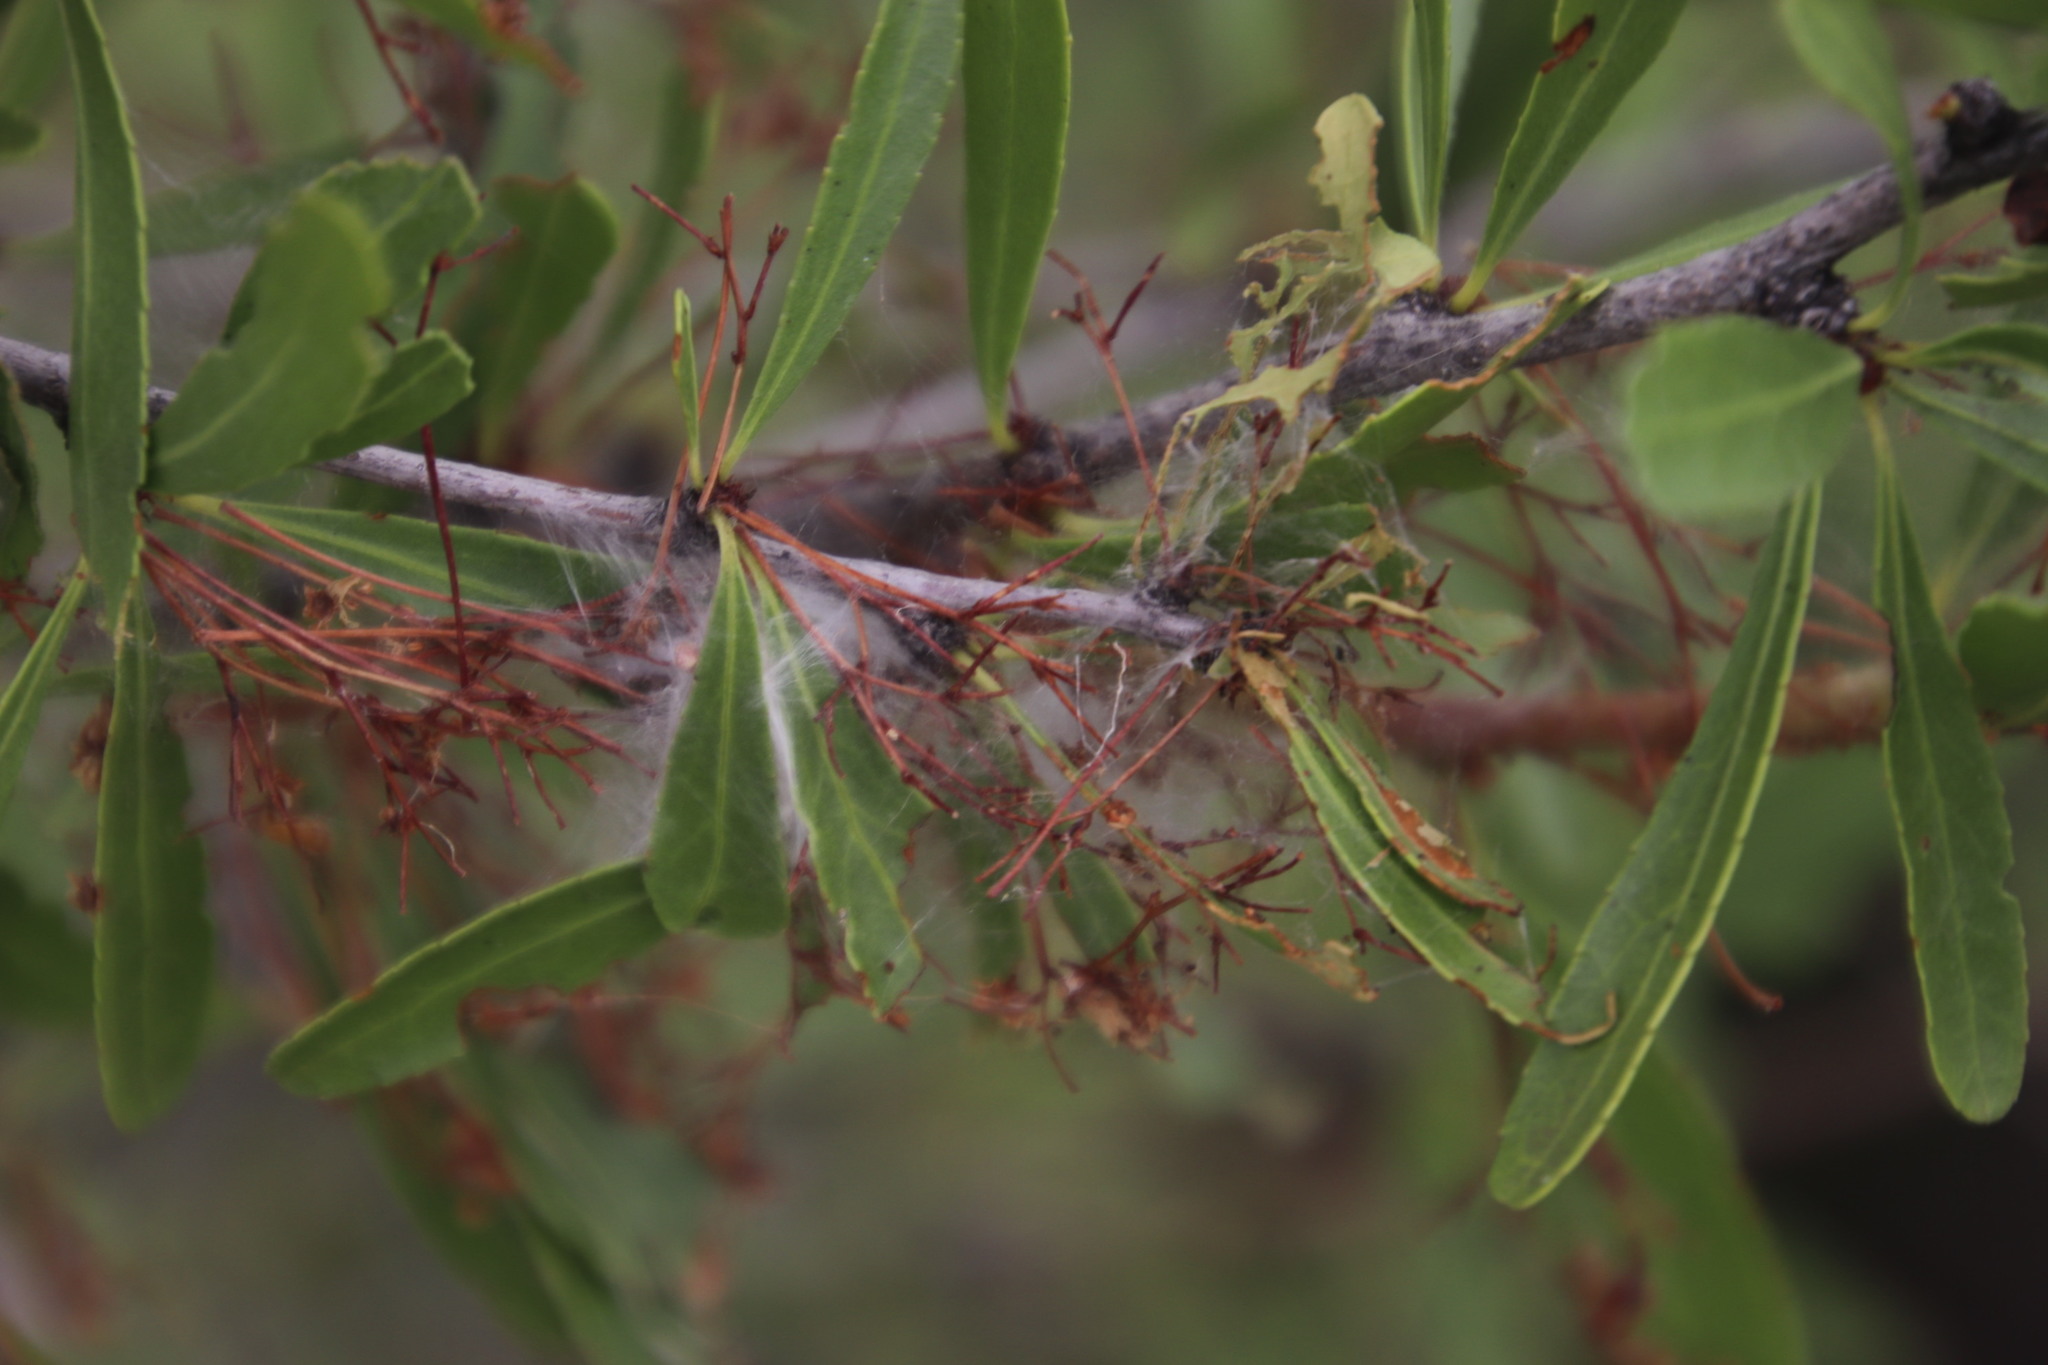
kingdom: Plantae
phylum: Tracheophyta
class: Magnoliopsida
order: Celastrales
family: Celastraceae
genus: Gymnosporia
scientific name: Gymnosporia tenuispina
